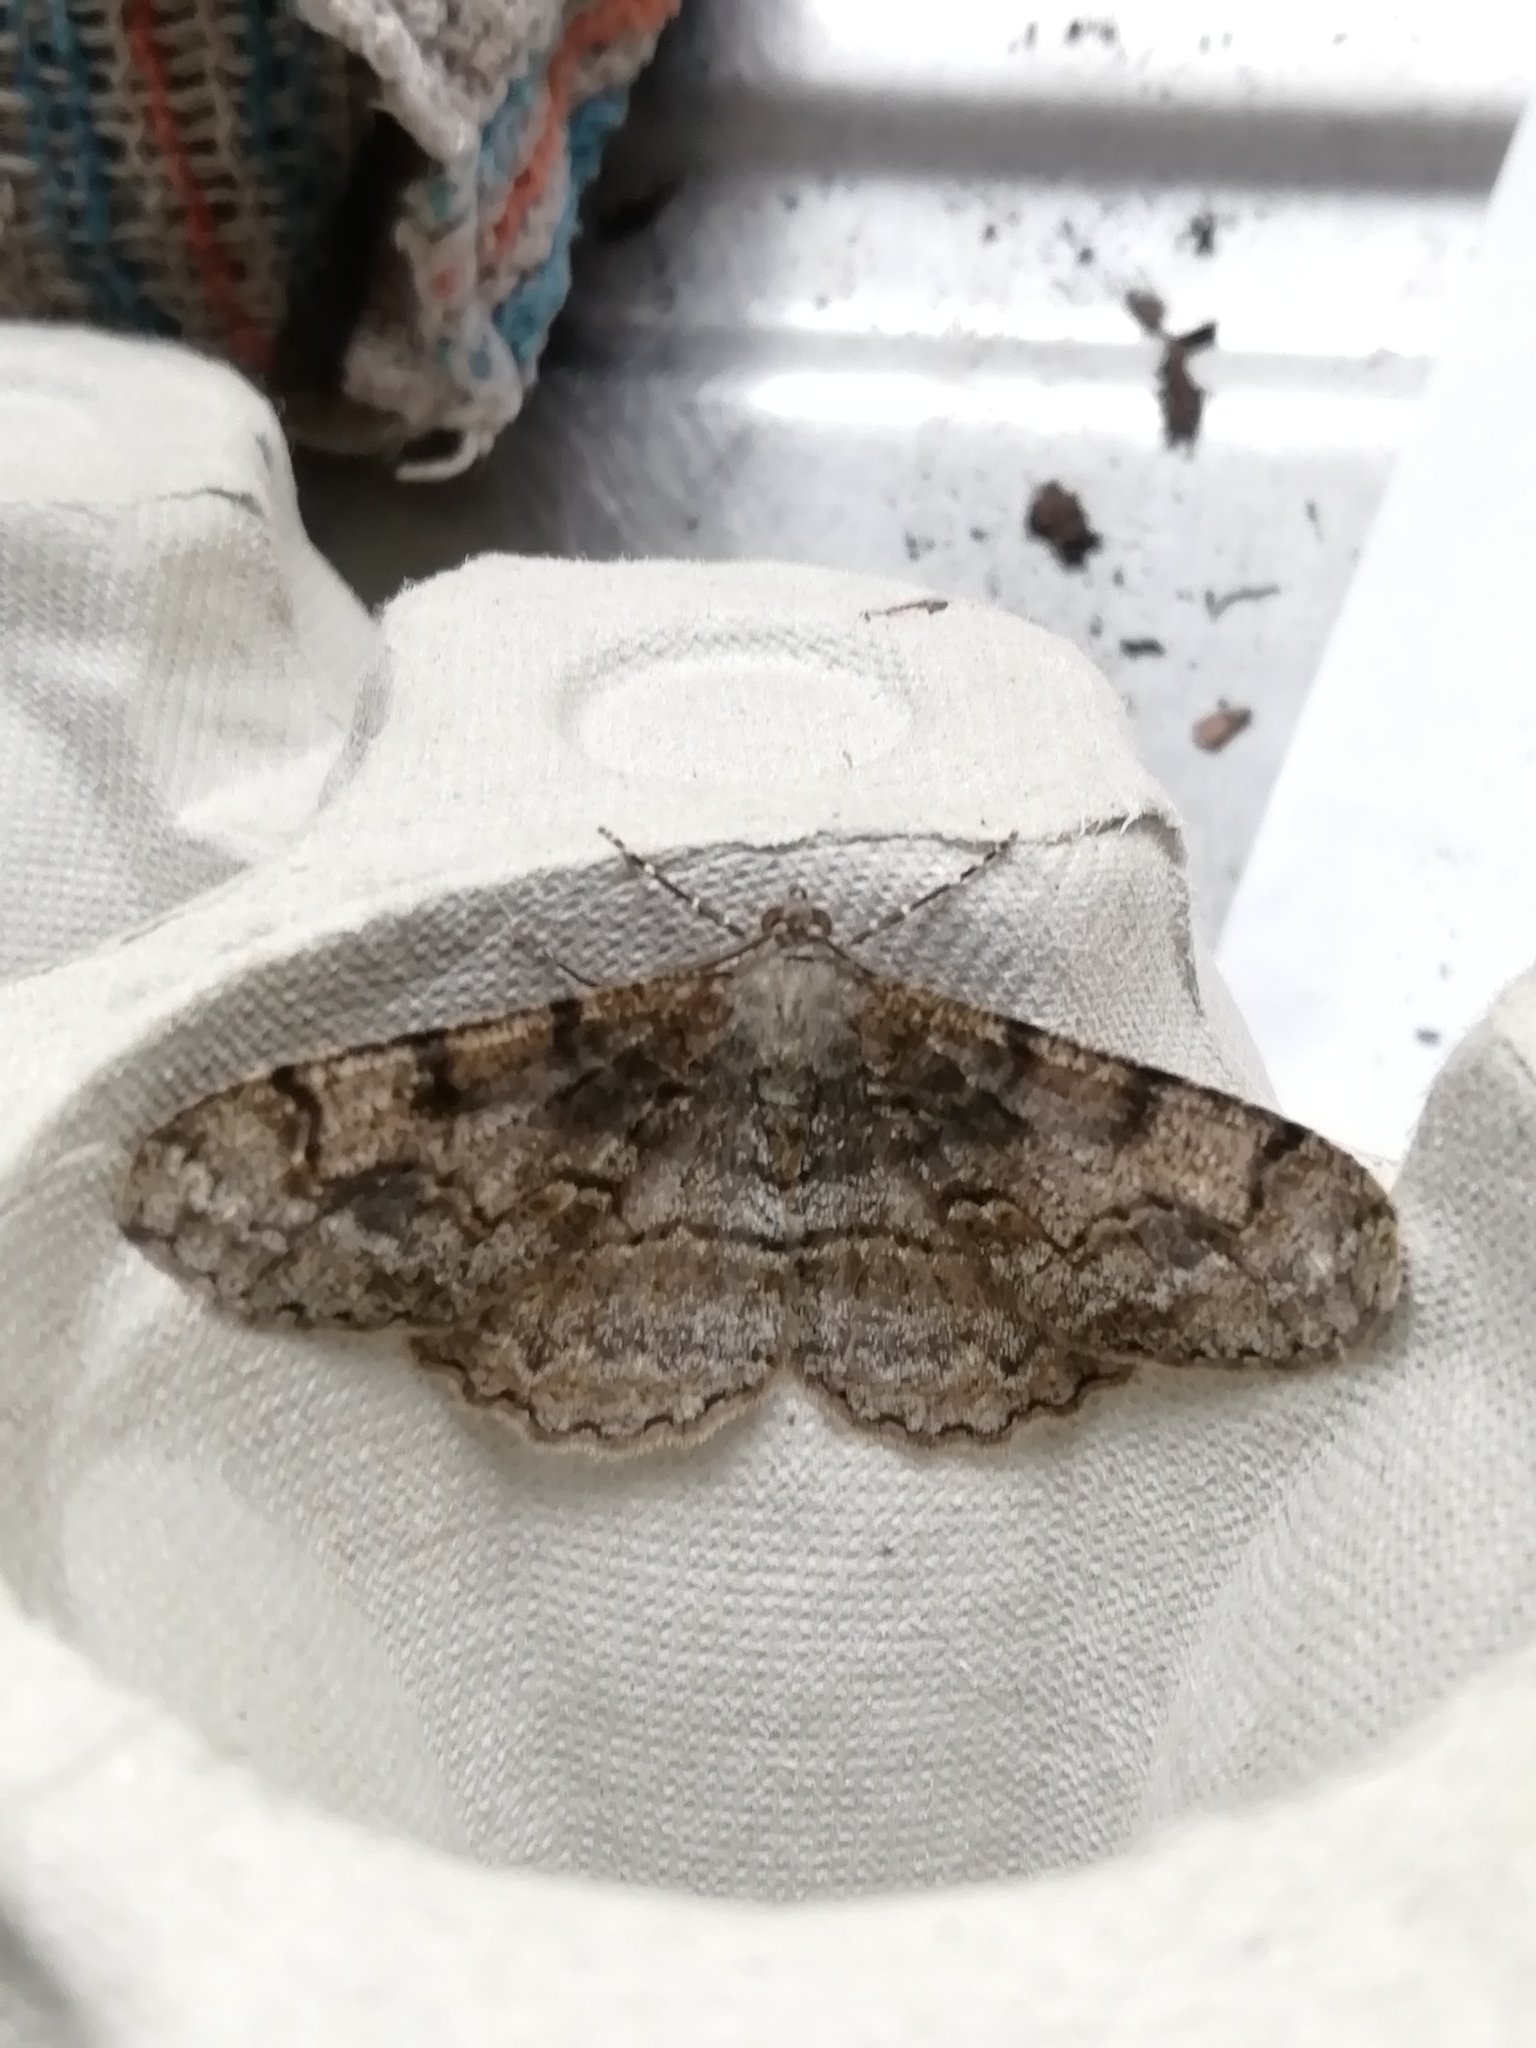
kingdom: Animalia
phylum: Arthropoda
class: Insecta
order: Lepidoptera
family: Geometridae
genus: Alcis
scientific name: Alcis repandata
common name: Mottled beauty
